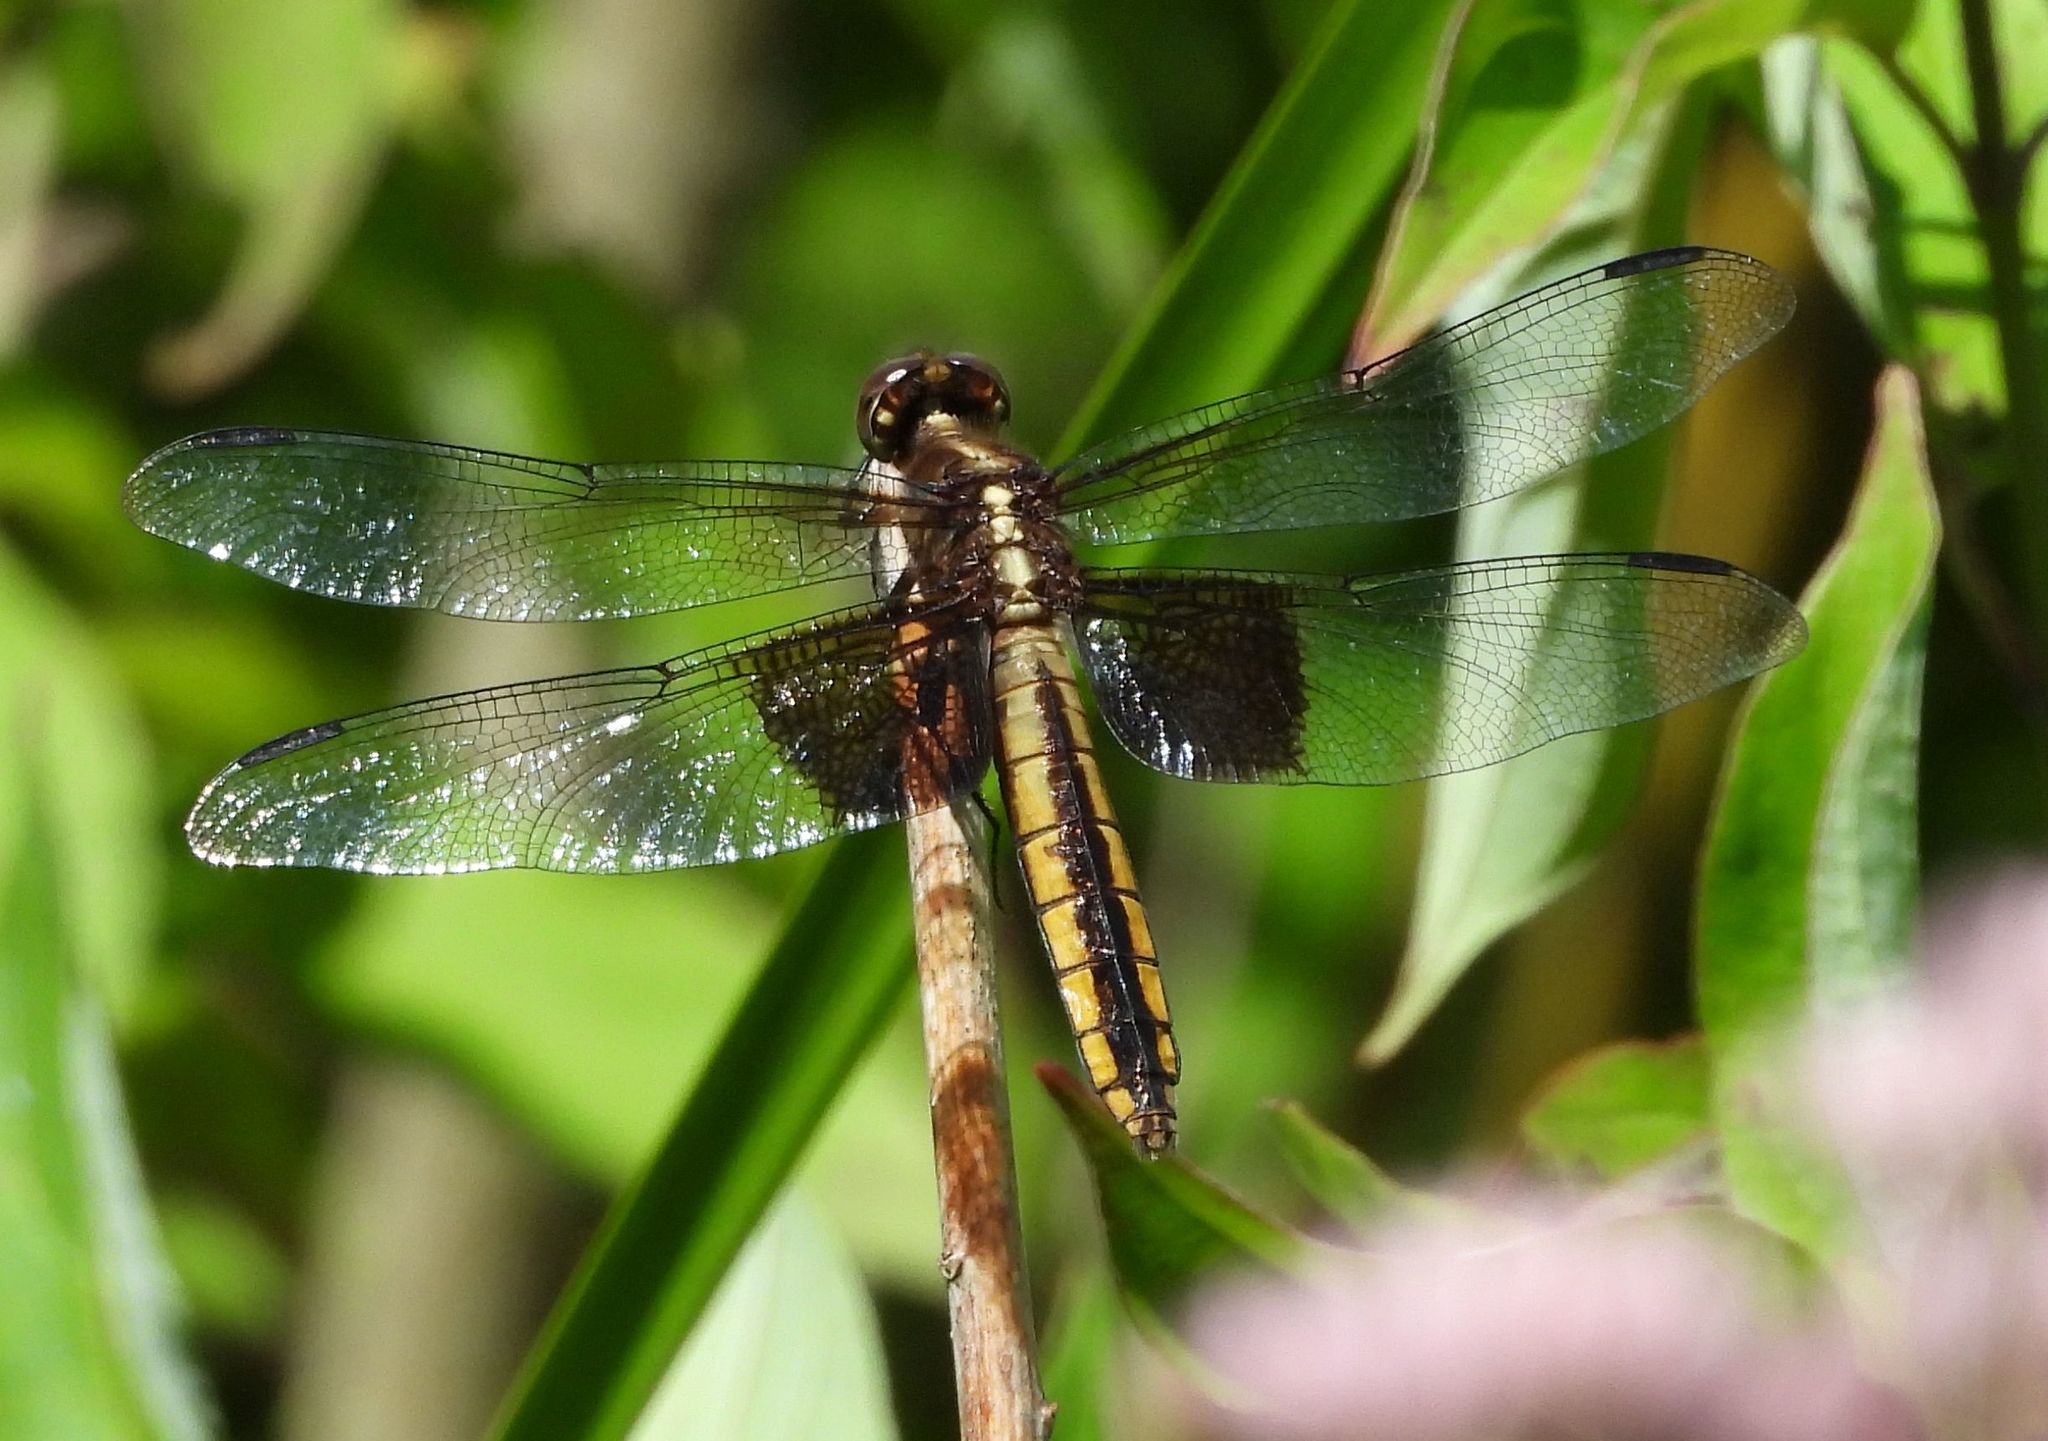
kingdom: Animalia
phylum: Arthropoda
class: Insecta
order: Odonata
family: Libellulidae
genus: Libellula
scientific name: Libellula luctuosa
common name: Widow skimmer
